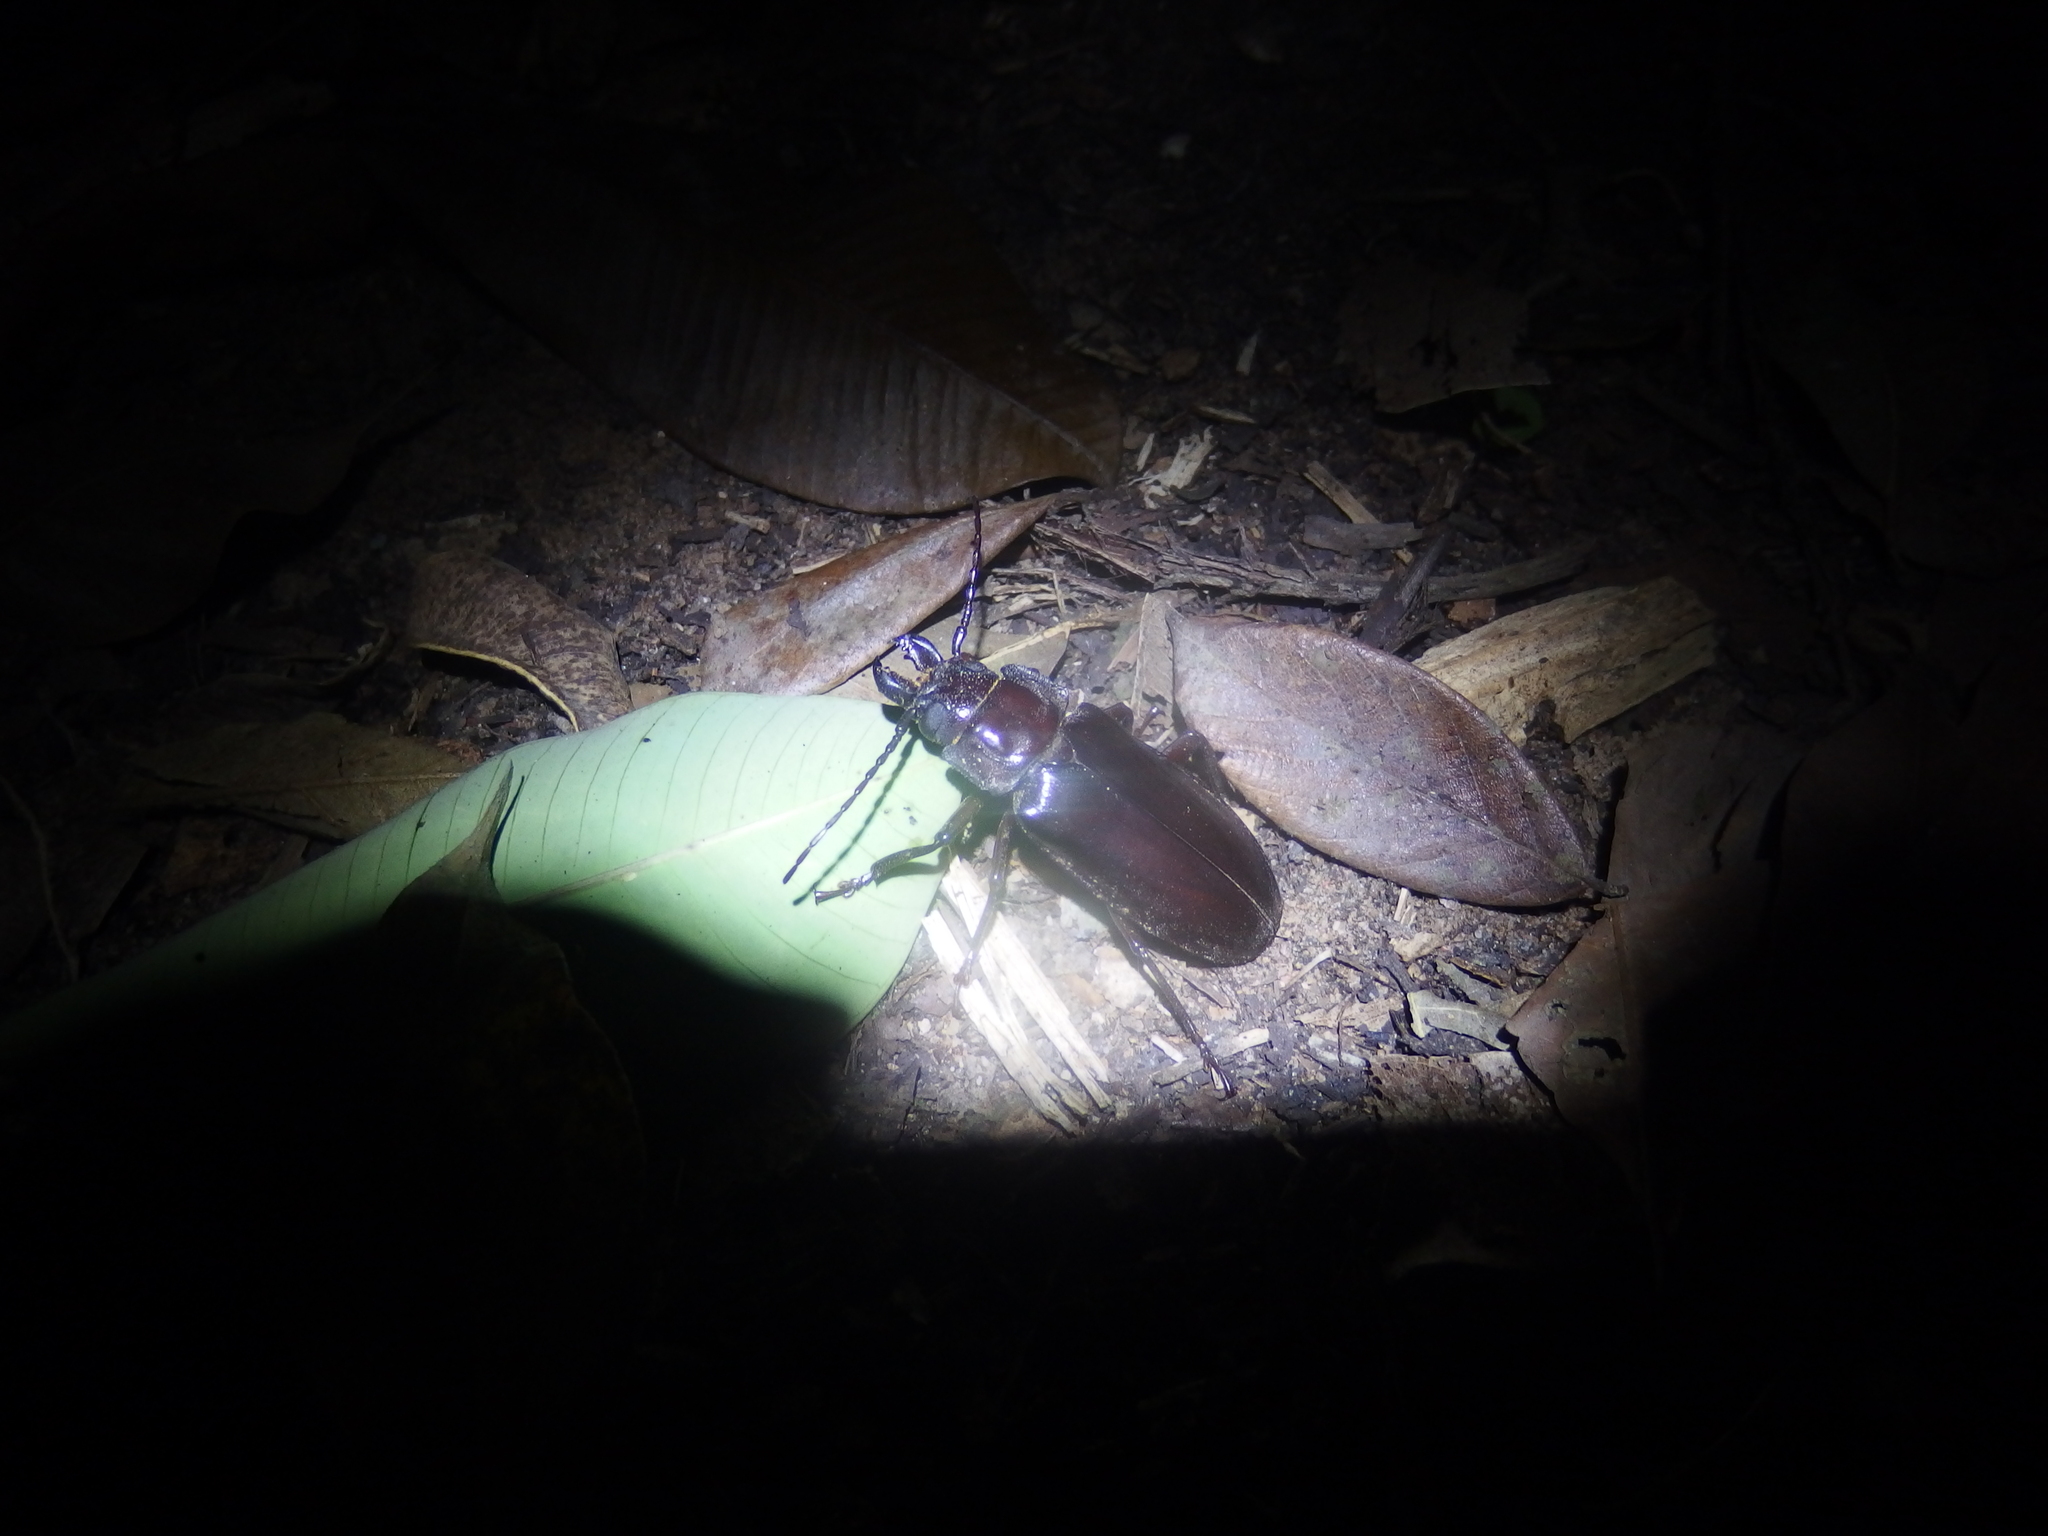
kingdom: Animalia
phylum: Arthropoda
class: Insecta
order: Coleoptera
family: Cerambycidae
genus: Mallodon
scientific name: Mallodon downesii
